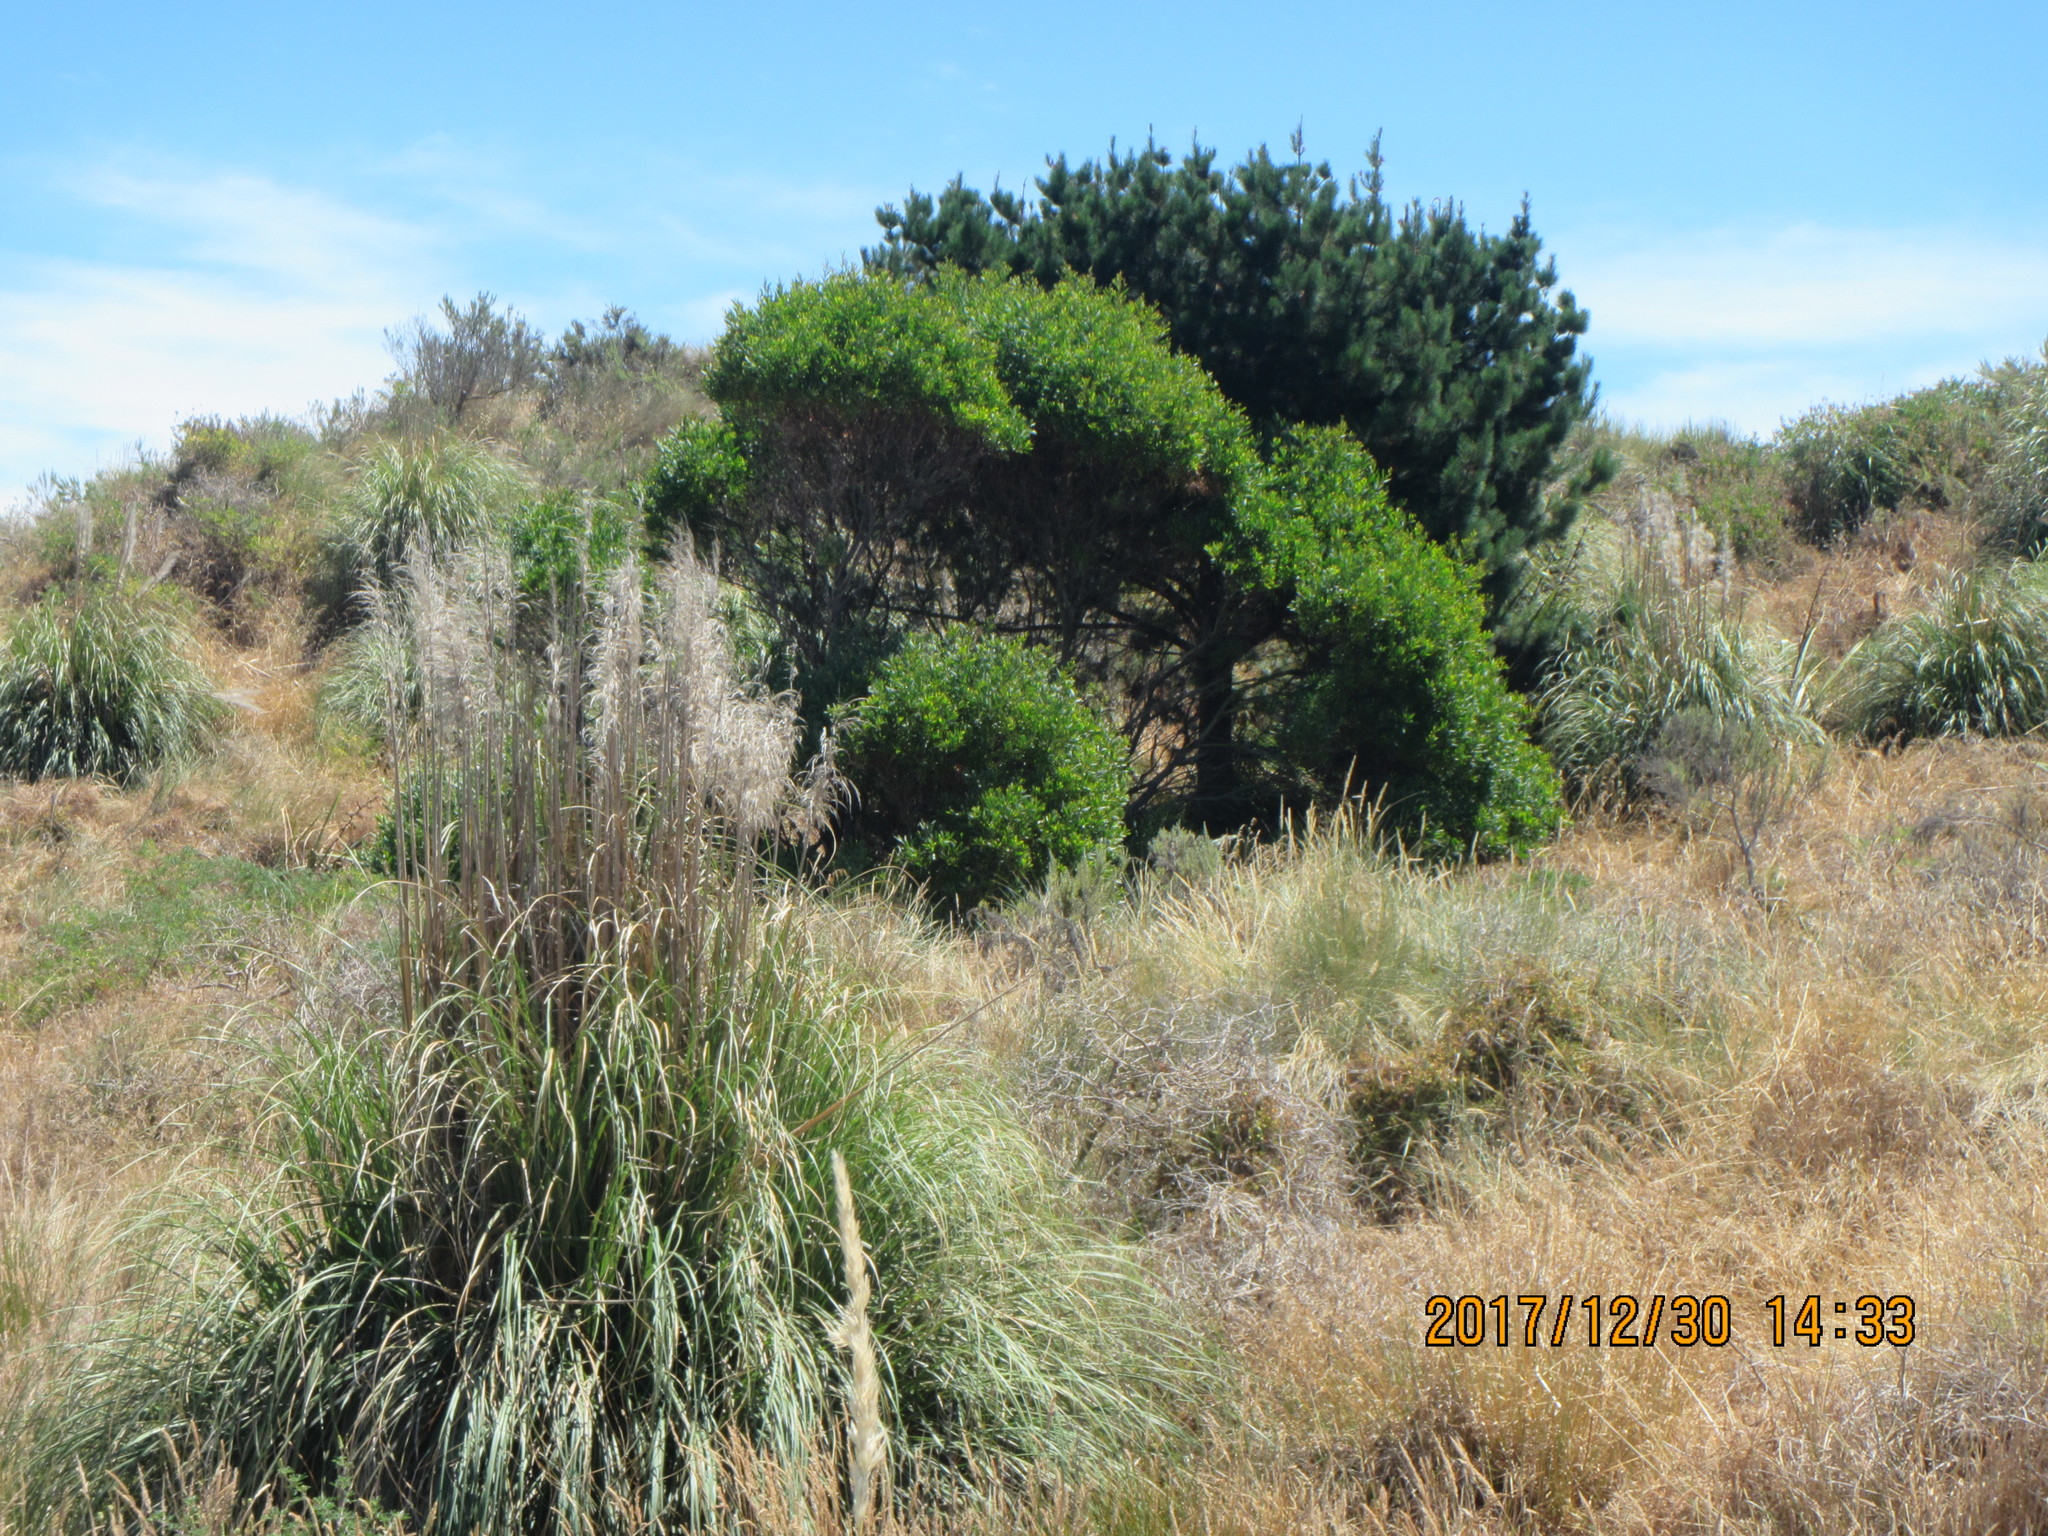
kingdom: Plantae
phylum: Tracheophyta
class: Magnoliopsida
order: Fabales
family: Fabaceae
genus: Acacia
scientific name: Acacia longifolia
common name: Sydney golden wattle
